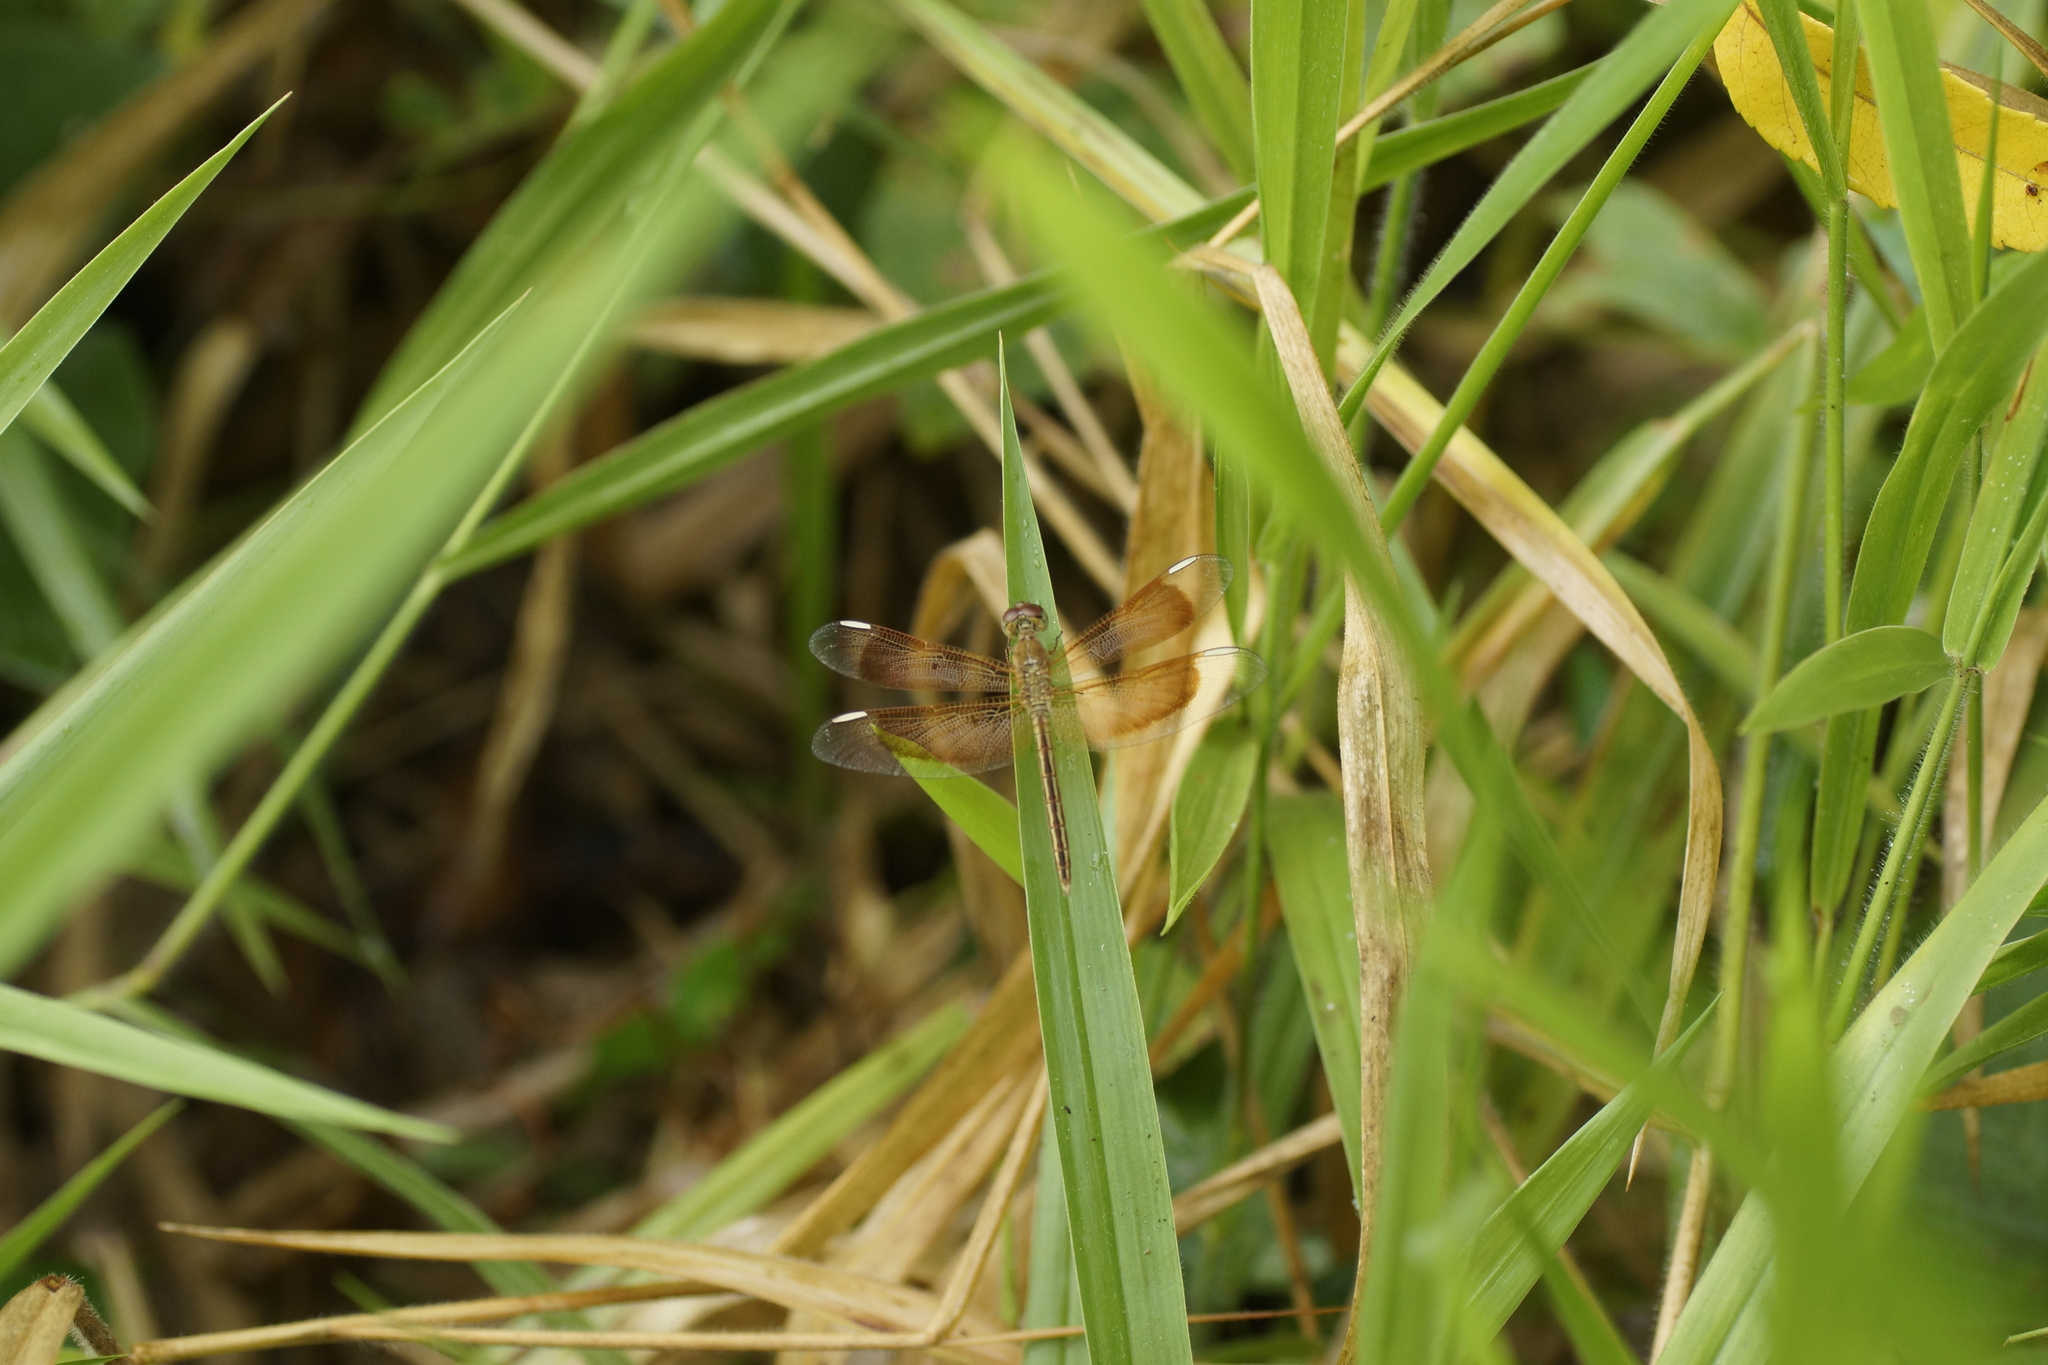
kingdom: Animalia
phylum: Arthropoda
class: Insecta
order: Odonata
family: Libellulidae
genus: Neurothemis
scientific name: Neurothemis stigmatizans
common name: Painted grasshawk
